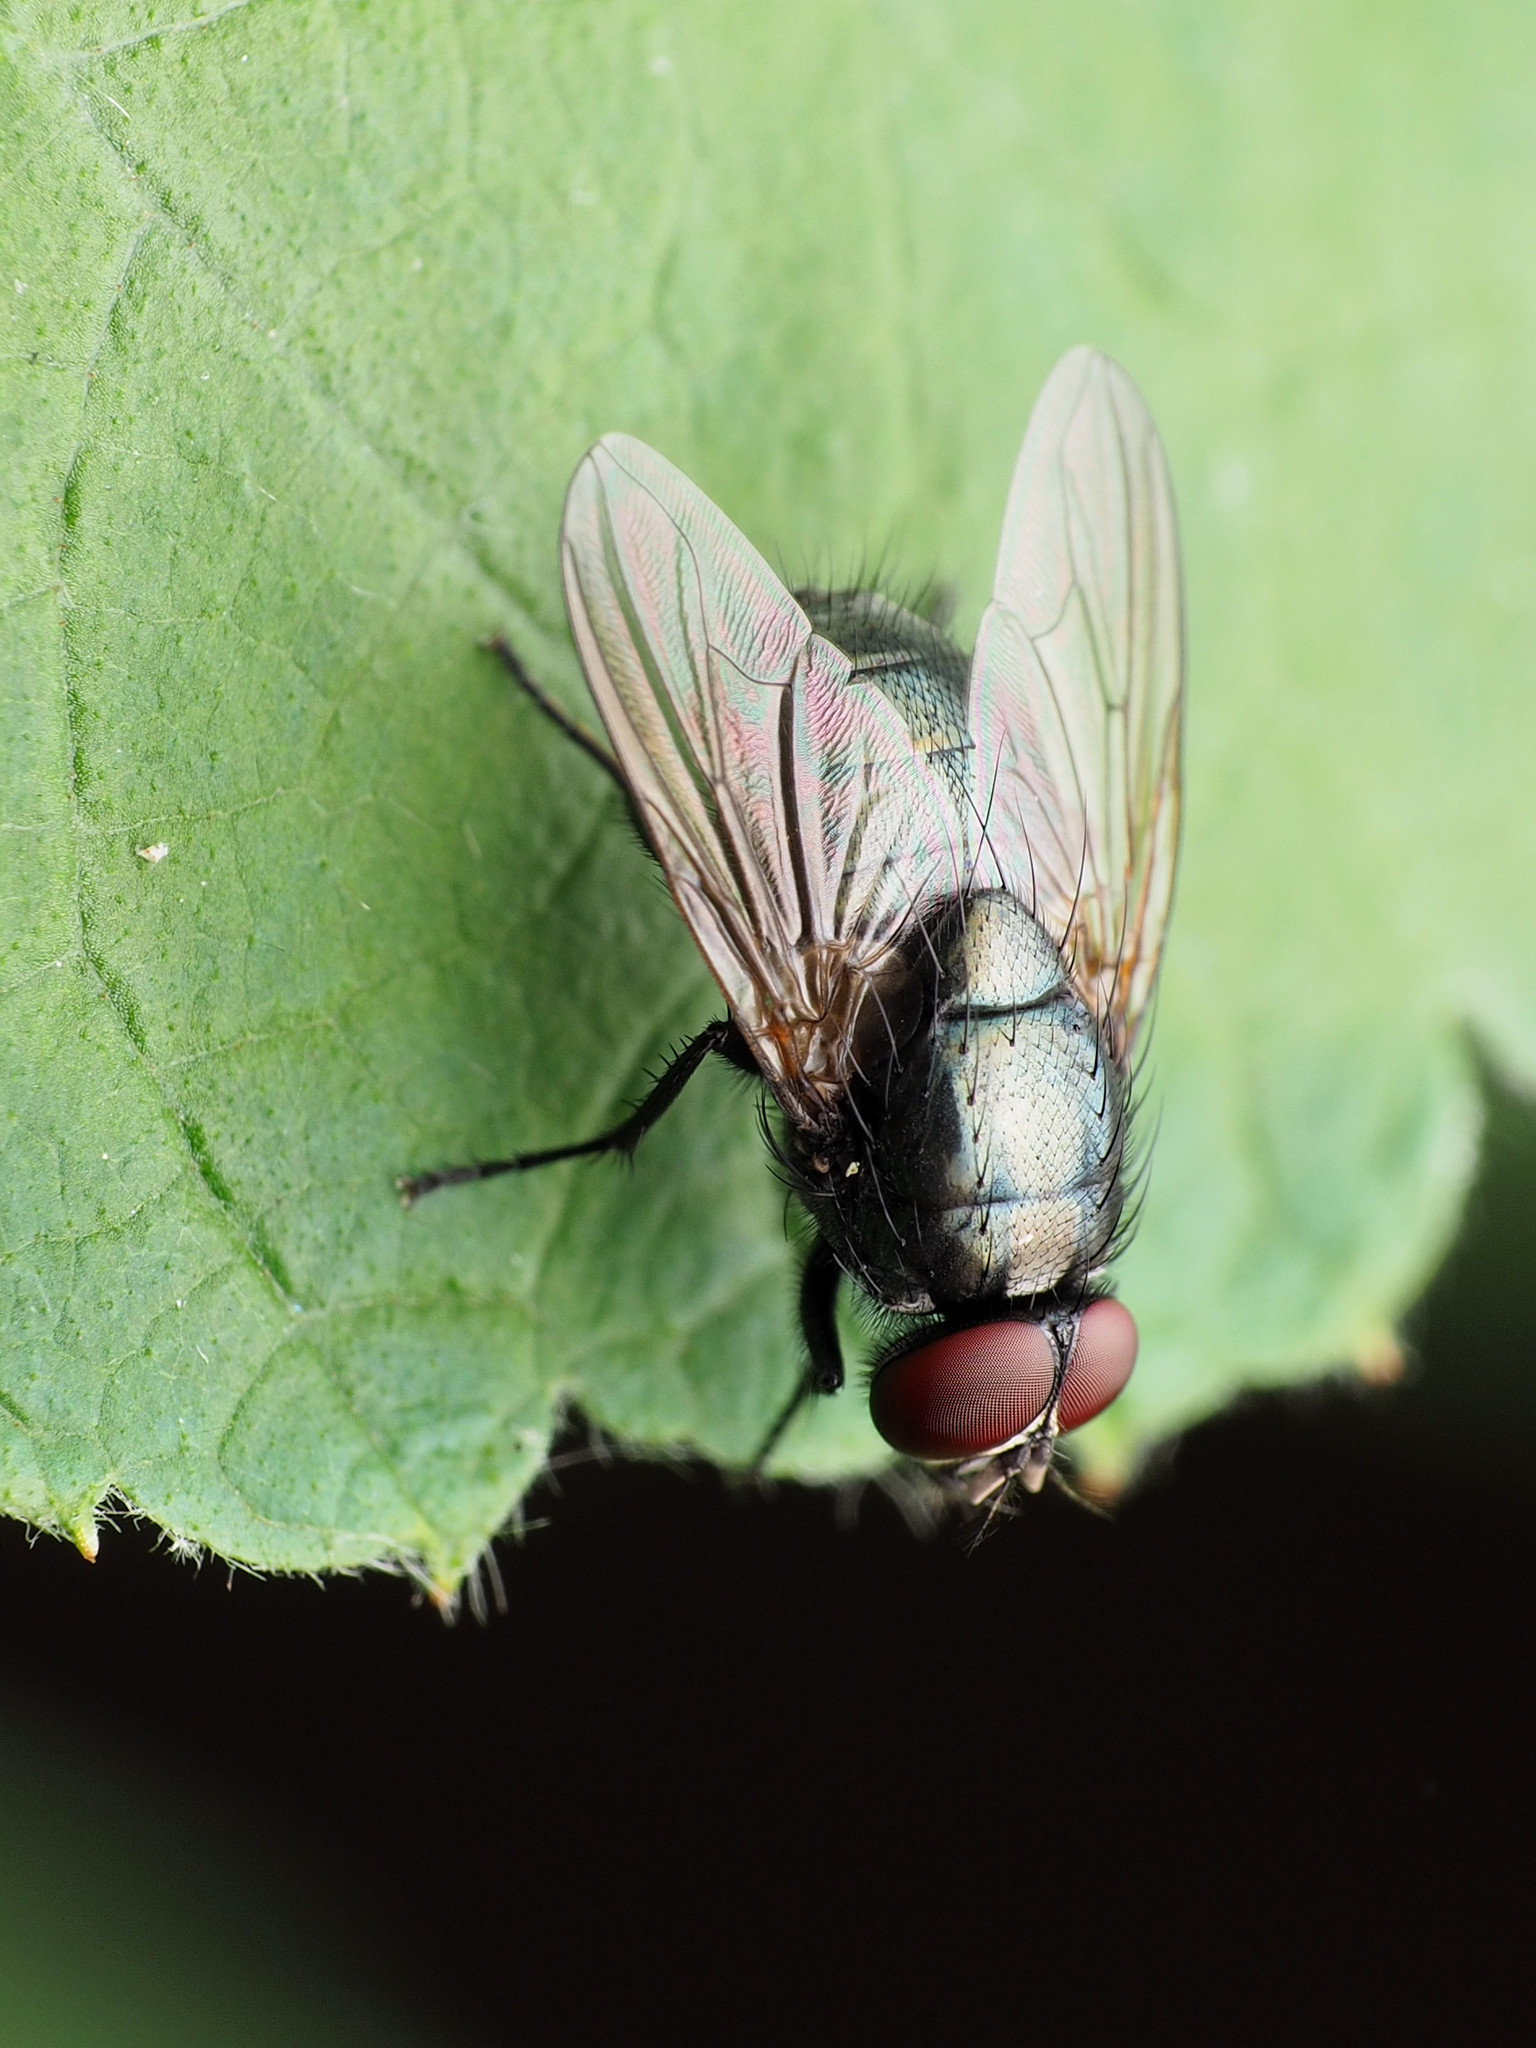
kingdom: Animalia
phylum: Arthropoda
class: Insecta
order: Diptera
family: Muscidae
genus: Eudasyphora
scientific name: Eudasyphora cyanicolor
